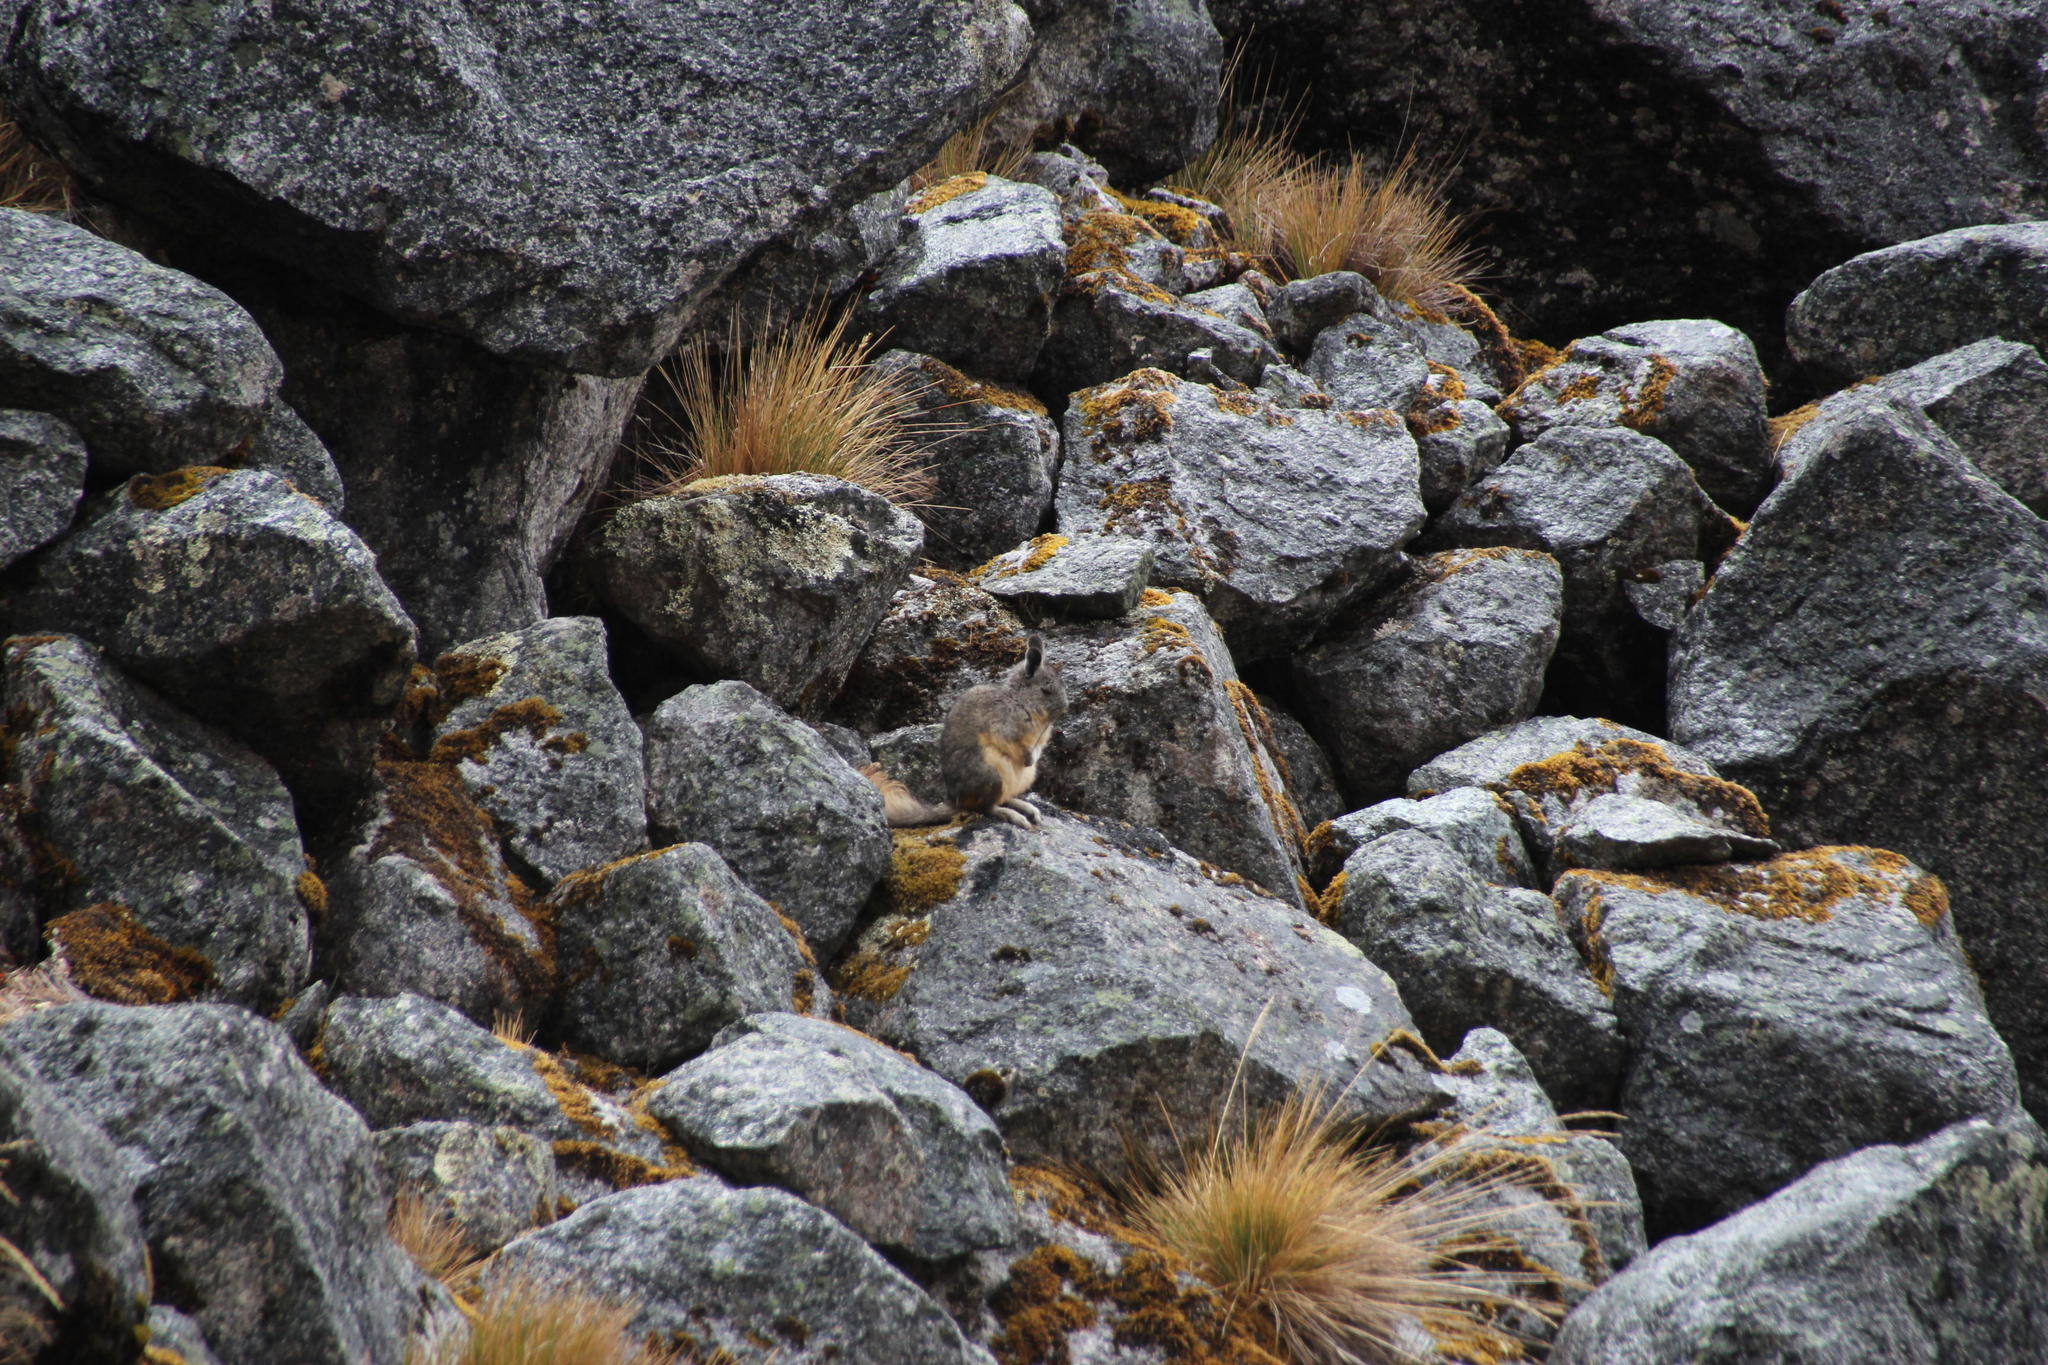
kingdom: Animalia
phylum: Chordata
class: Mammalia
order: Rodentia
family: Chinchillidae
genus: Lagidium
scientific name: Lagidium viscacia
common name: Southern viscacha
